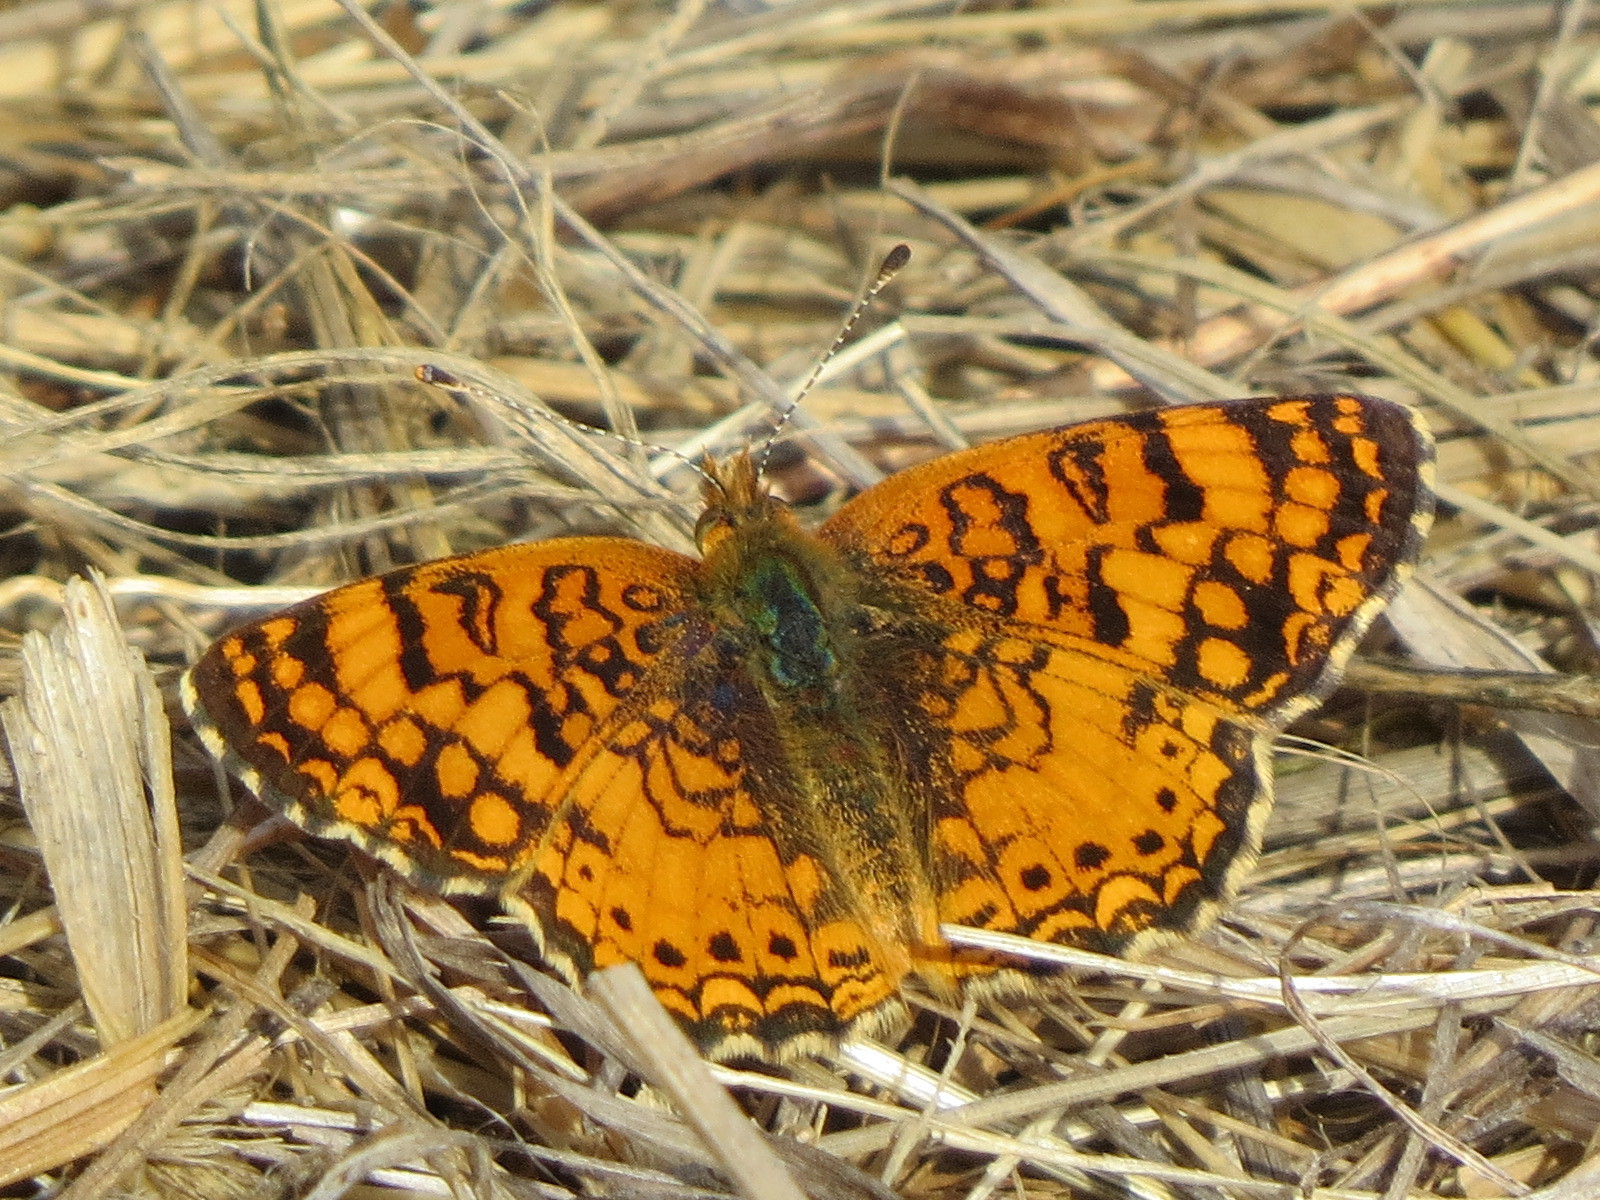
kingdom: Animalia
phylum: Arthropoda
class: Insecta
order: Lepidoptera
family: Nymphalidae
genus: Eresia
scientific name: Eresia aveyrona
